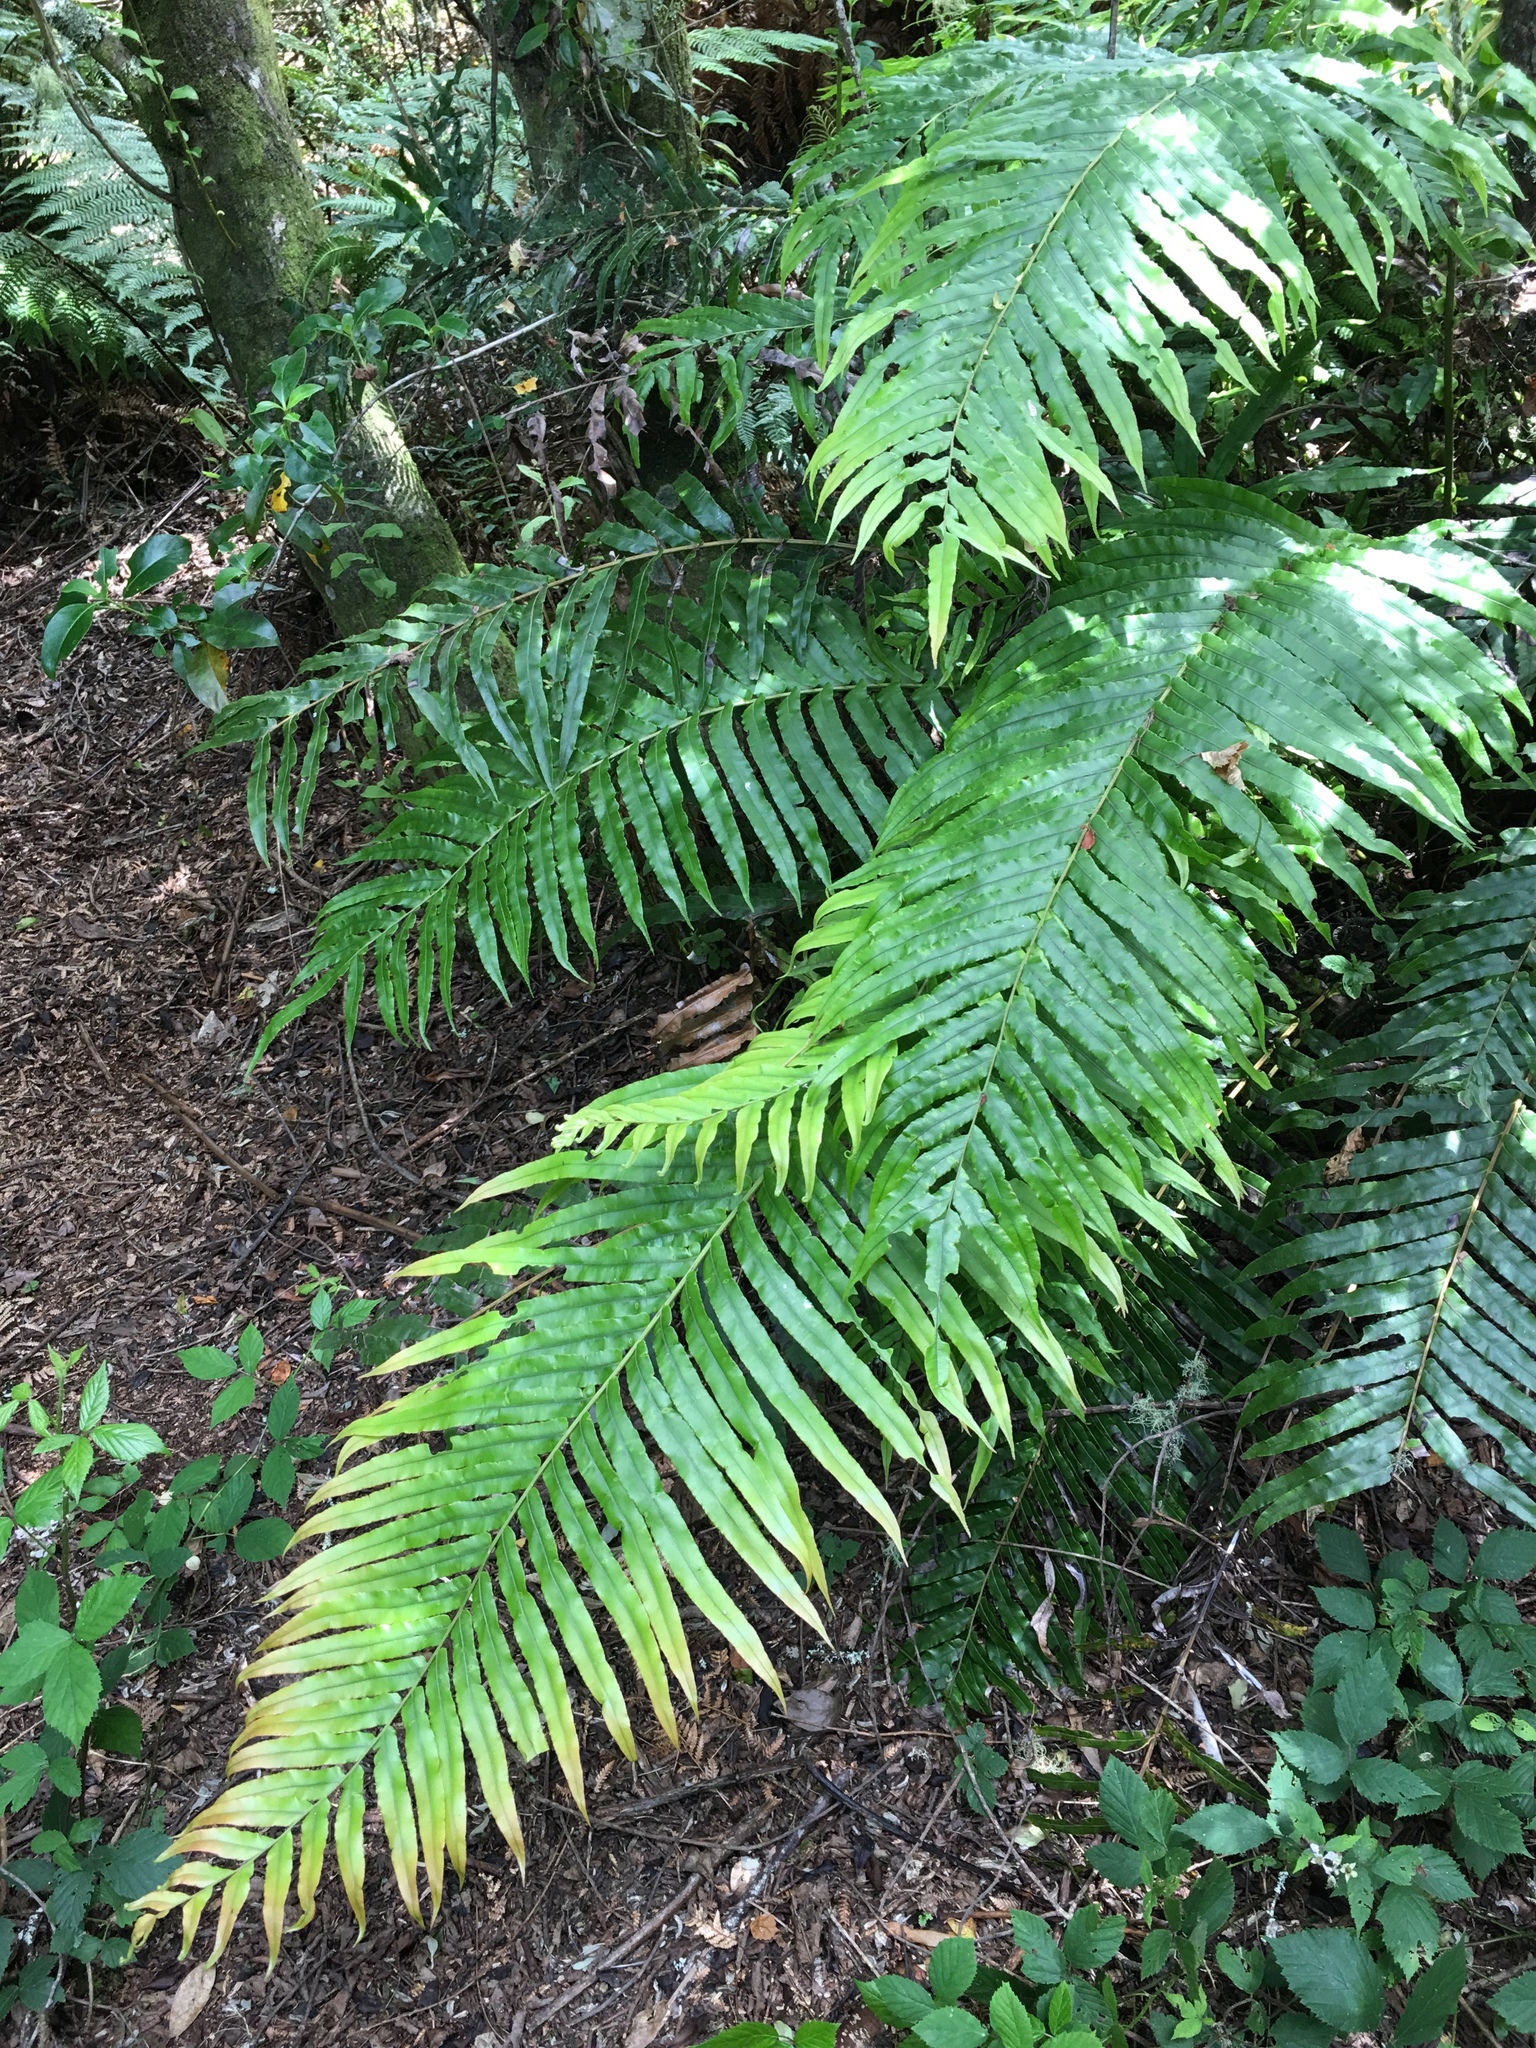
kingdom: Plantae
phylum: Tracheophyta
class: Polypodiopsida
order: Polypodiales
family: Blechnaceae
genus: Parablechnum
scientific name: Parablechnum novae-zelandiae
